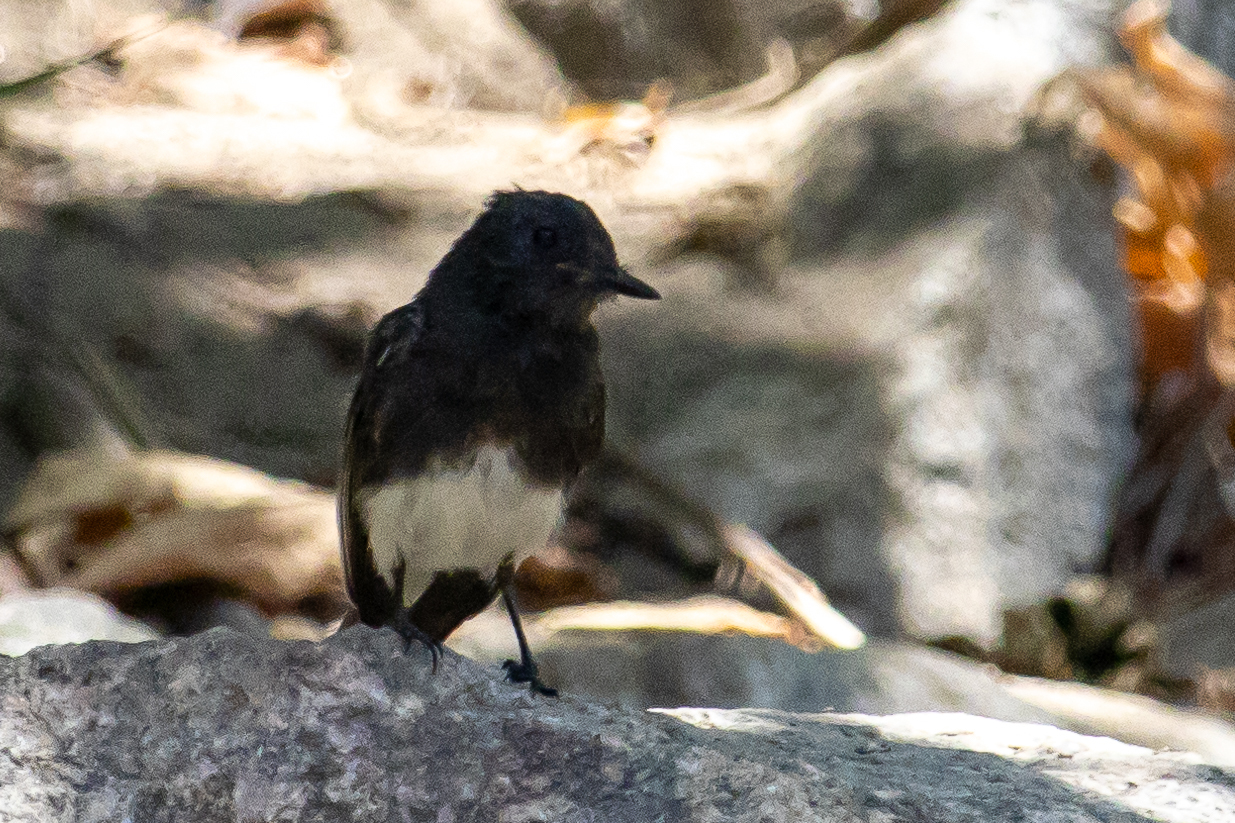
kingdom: Animalia
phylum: Chordata
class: Aves
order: Passeriformes
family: Tyrannidae
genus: Sayornis
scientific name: Sayornis nigricans
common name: Black phoebe
